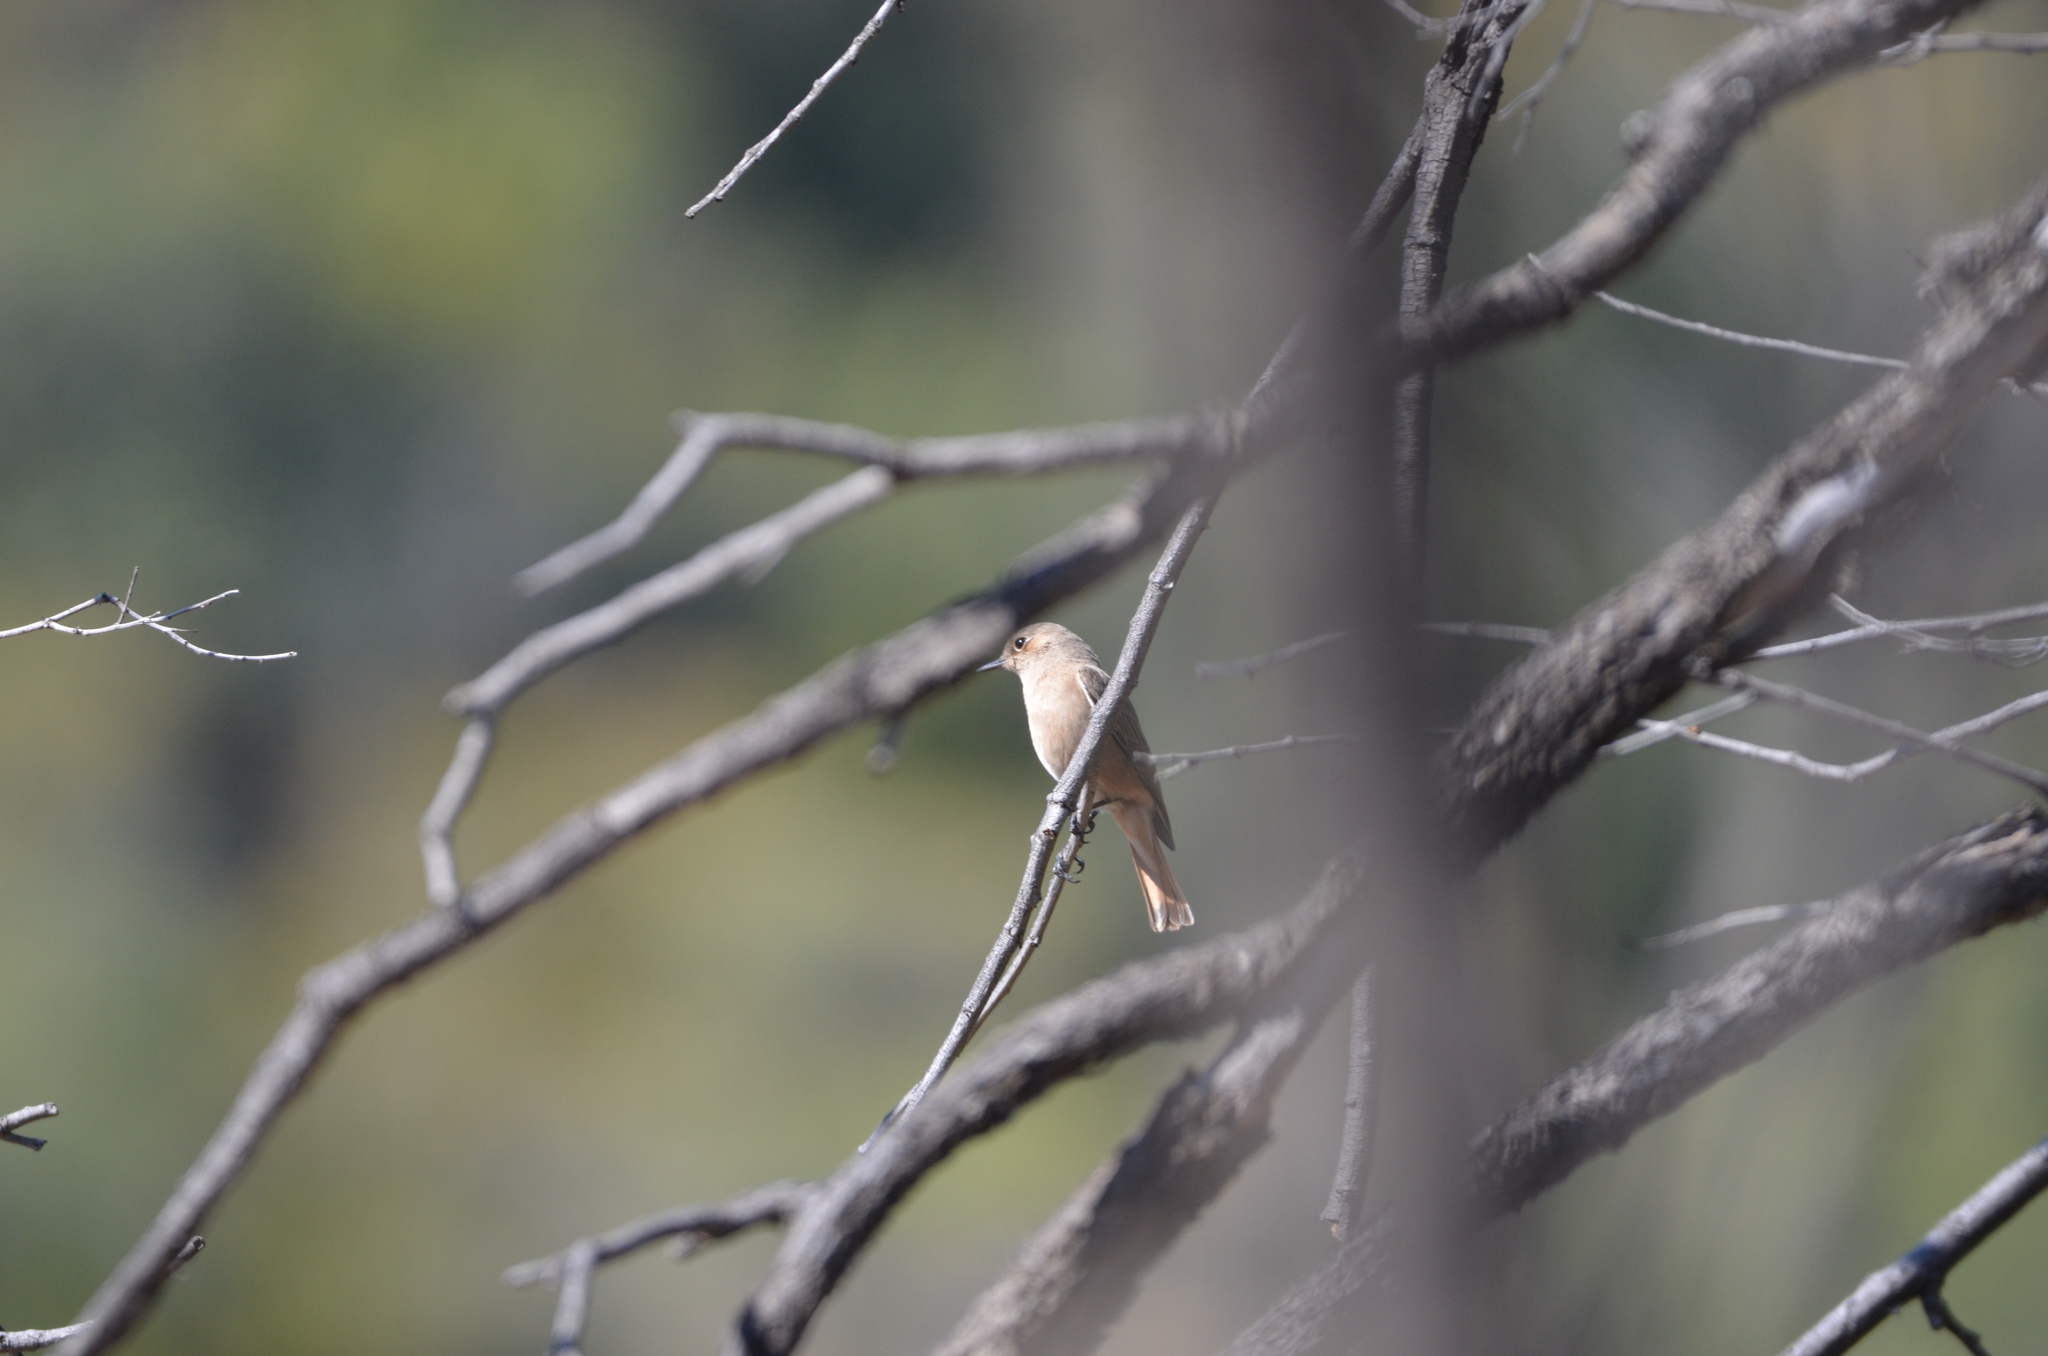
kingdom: Animalia
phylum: Chordata
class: Aves
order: Passeriformes
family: Muscicapidae
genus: Oenanthe
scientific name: Oenanthe familiaris
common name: Familiar chat
